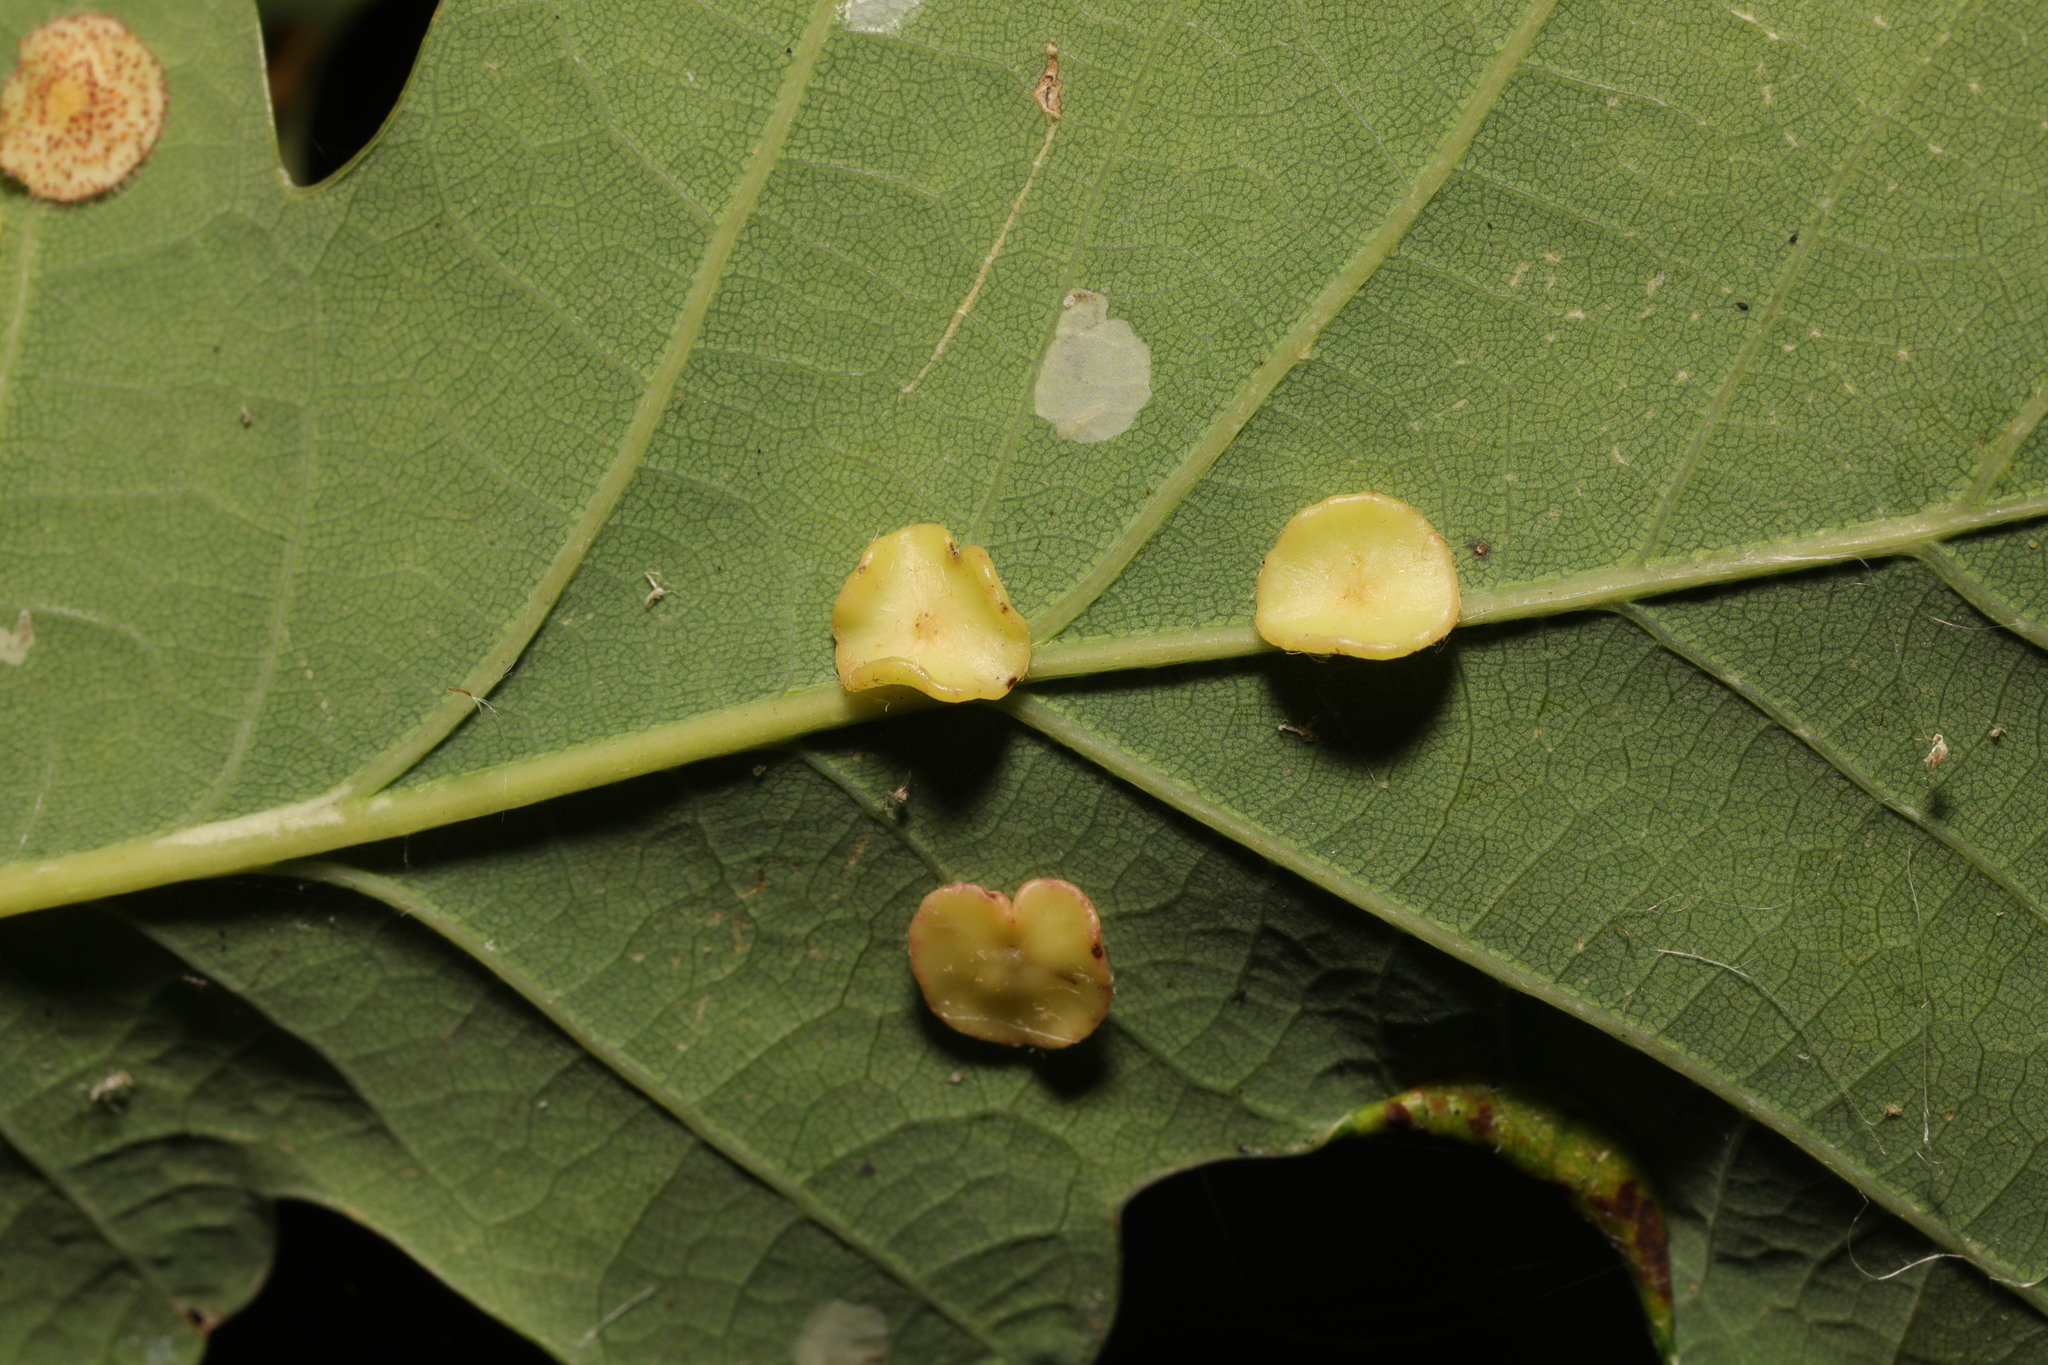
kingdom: Animalia
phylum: Arthropoda
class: Insecta
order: Hymenoptera
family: Cynipidae
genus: Neuroterus
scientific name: Neuroterus albipes
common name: Smooth spangle gall
